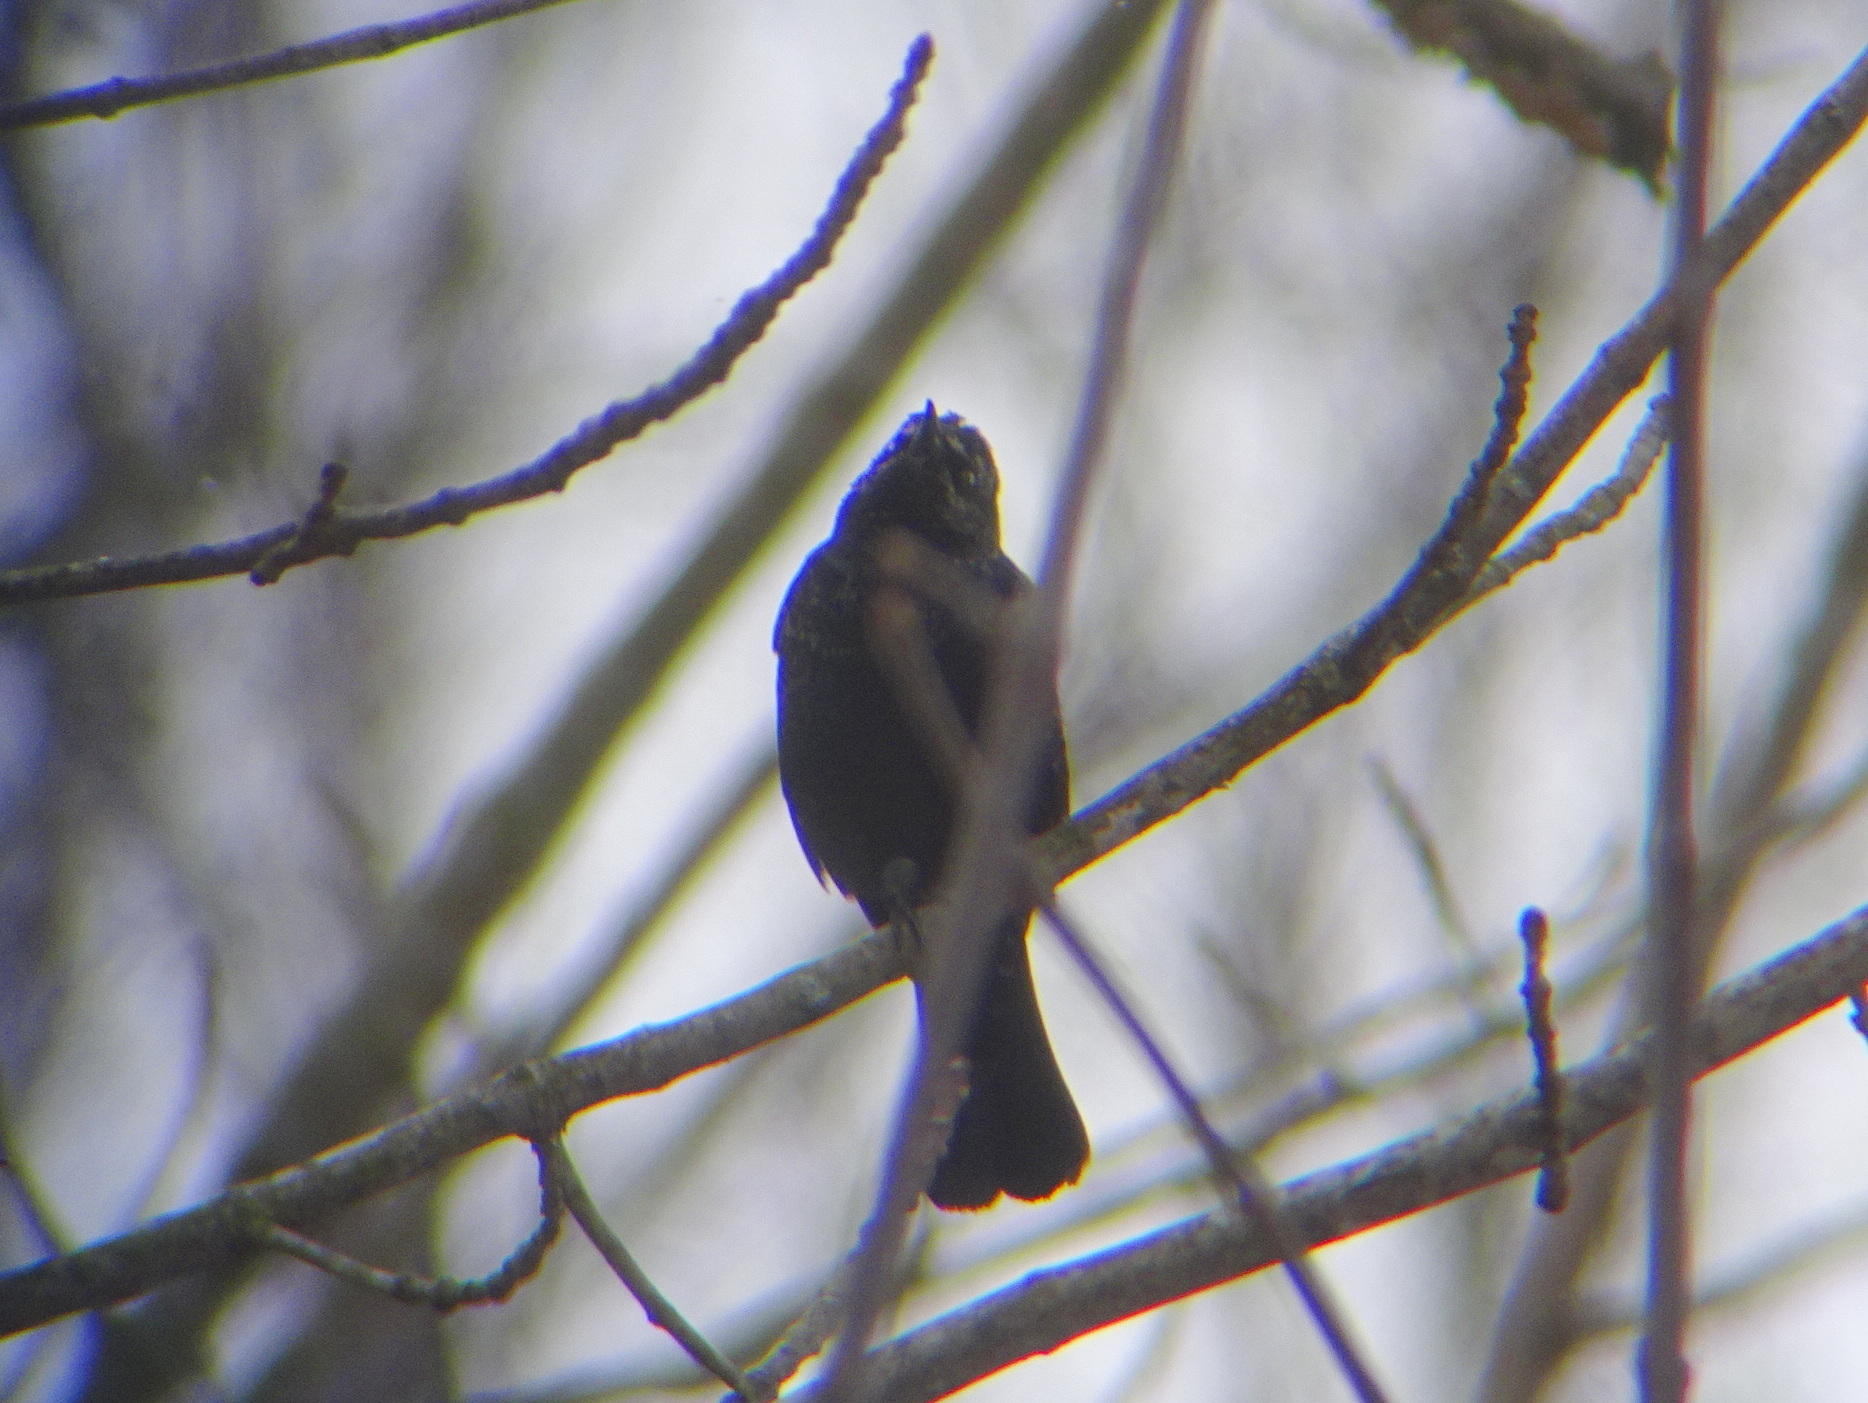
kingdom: Animalia
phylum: Chordata
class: Aves
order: Passeriformes
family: Icteridae
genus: Euphagus
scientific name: Euphagus carolinus
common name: Rusty blackbird
